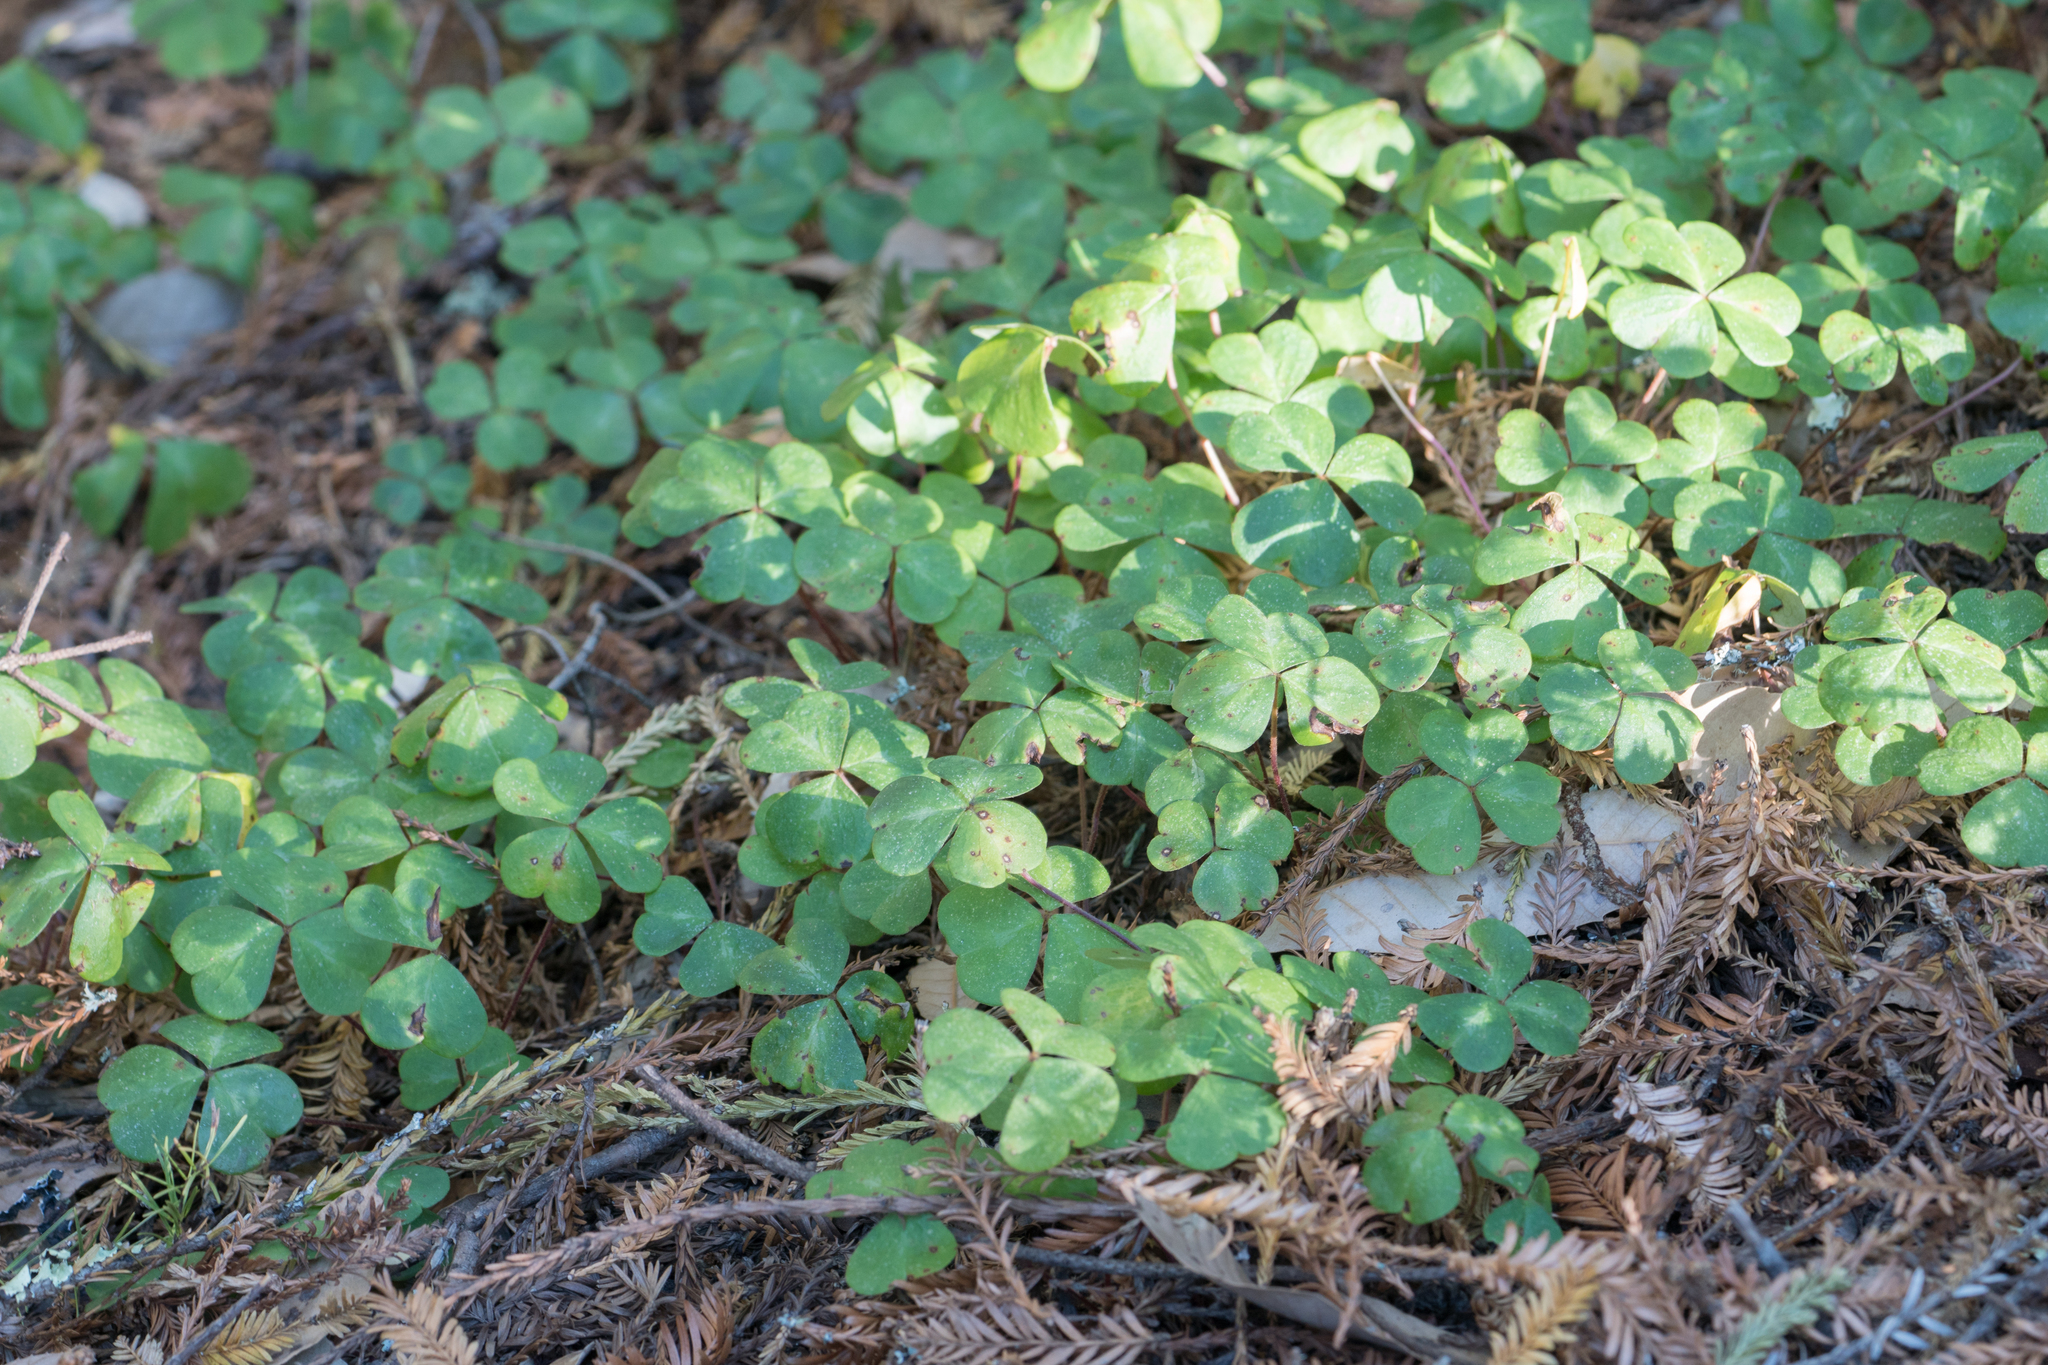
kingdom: Plantae
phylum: Tracheophyta
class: Magnoliopsida
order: Oxalidales
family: Oxalidaceae
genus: Oxalis
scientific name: Oxalis oregana
